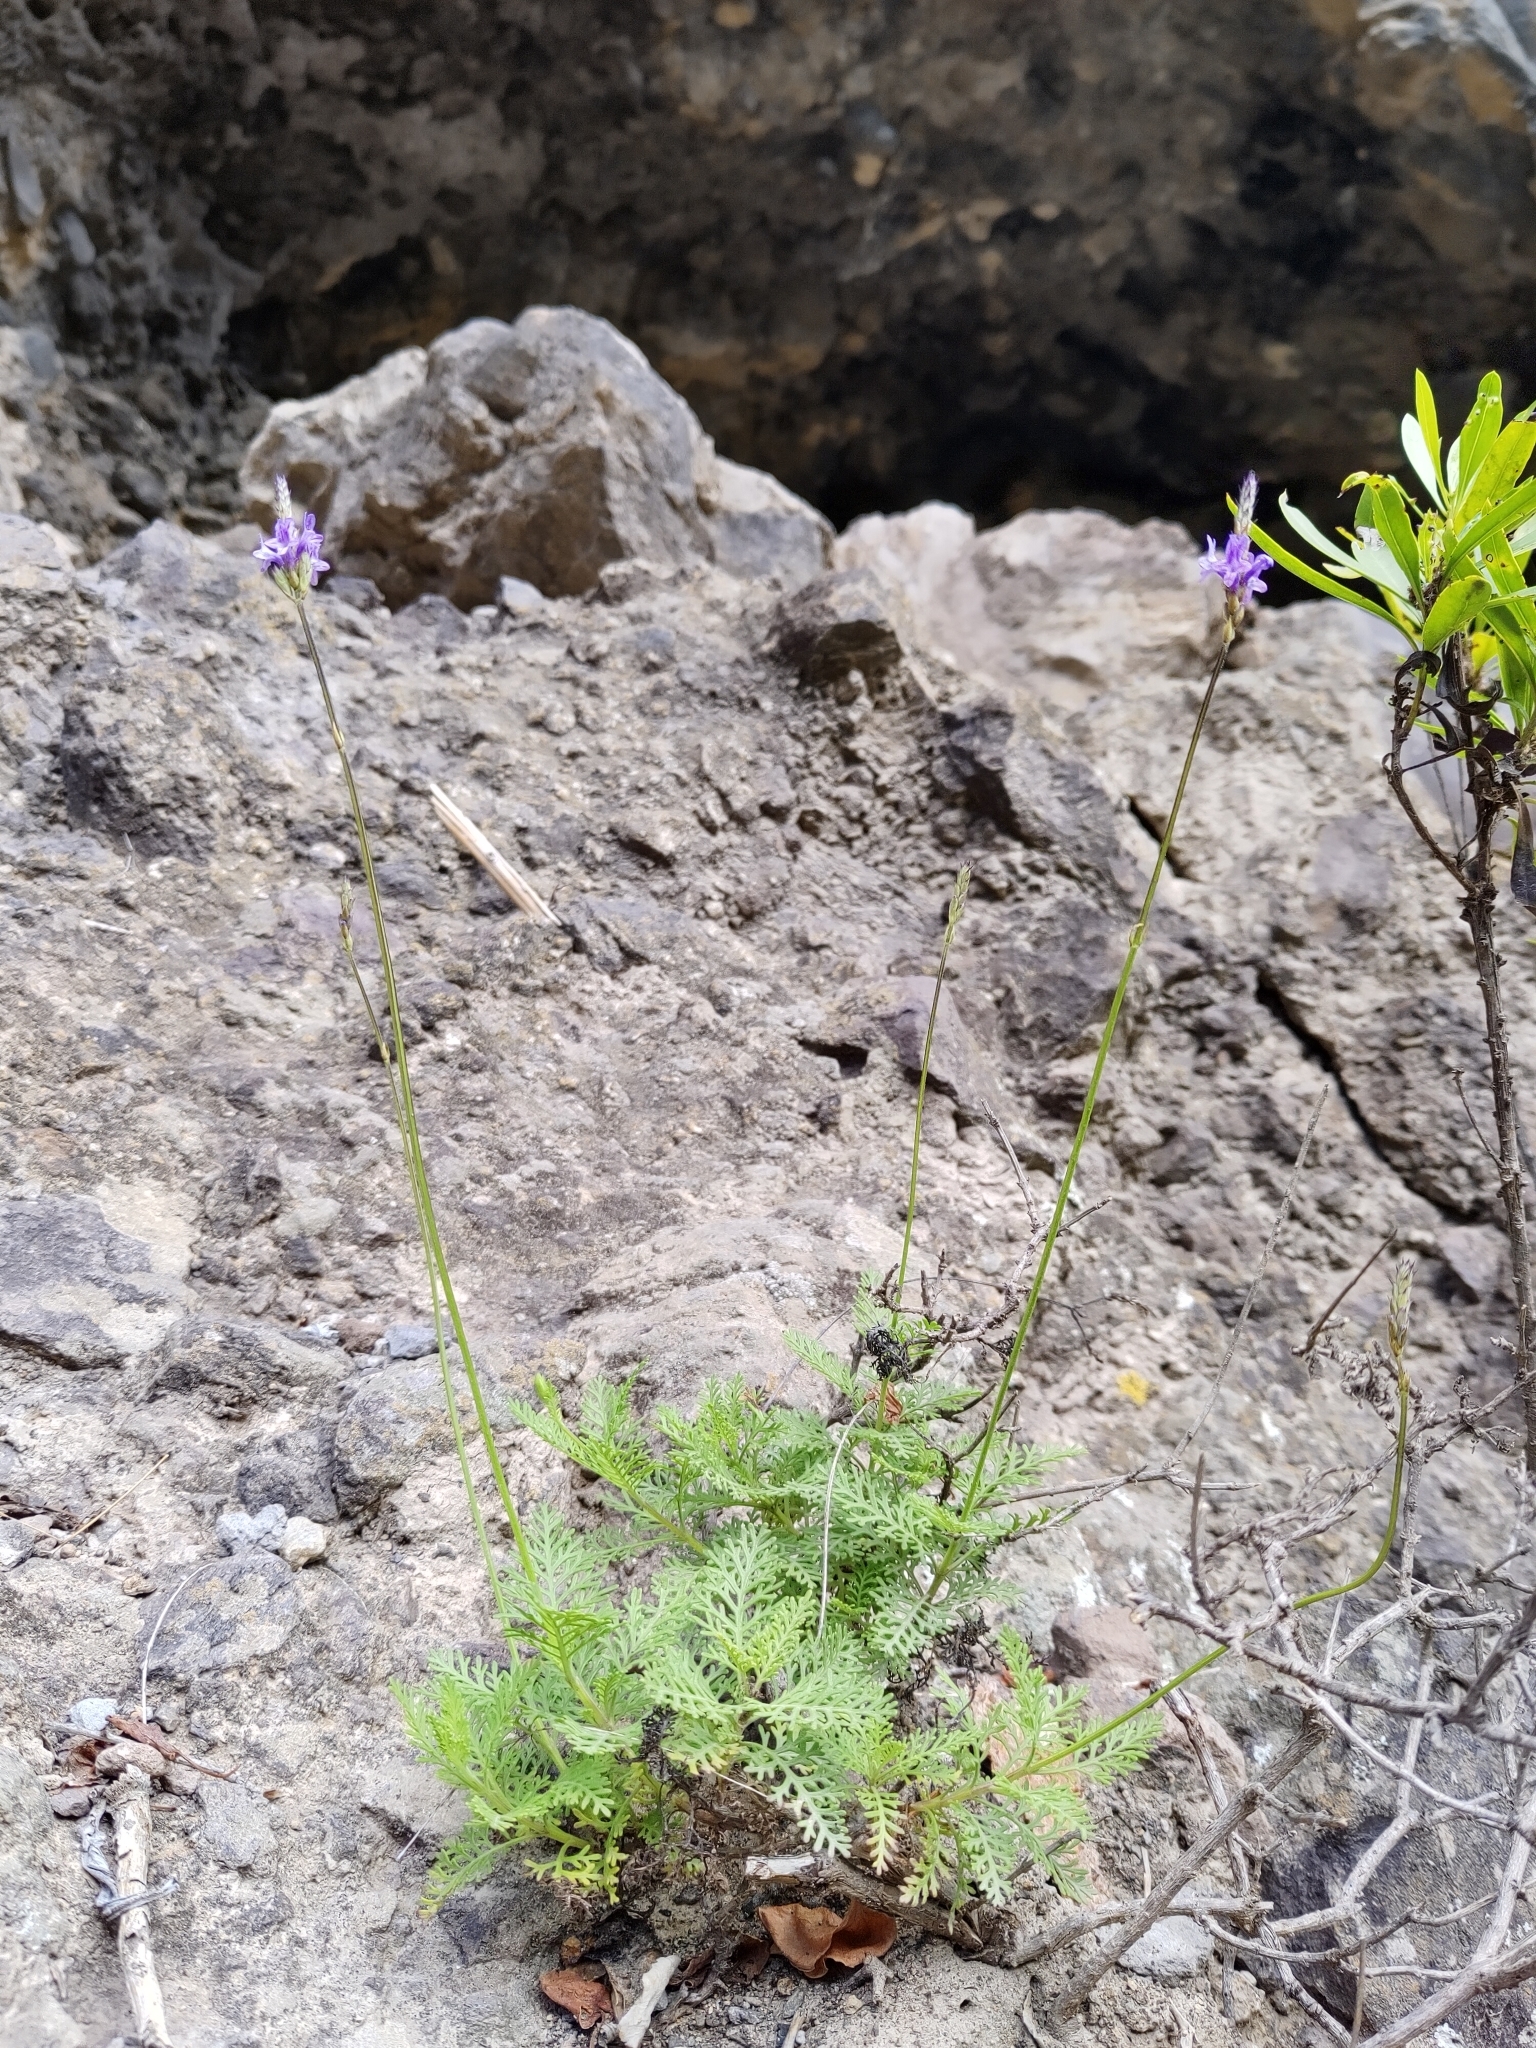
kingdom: Plantae
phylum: Tracheophyta
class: Magnoliopsida
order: Lamiales
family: Lamiaceae
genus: Lavandula
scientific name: Lavandula canariensis
